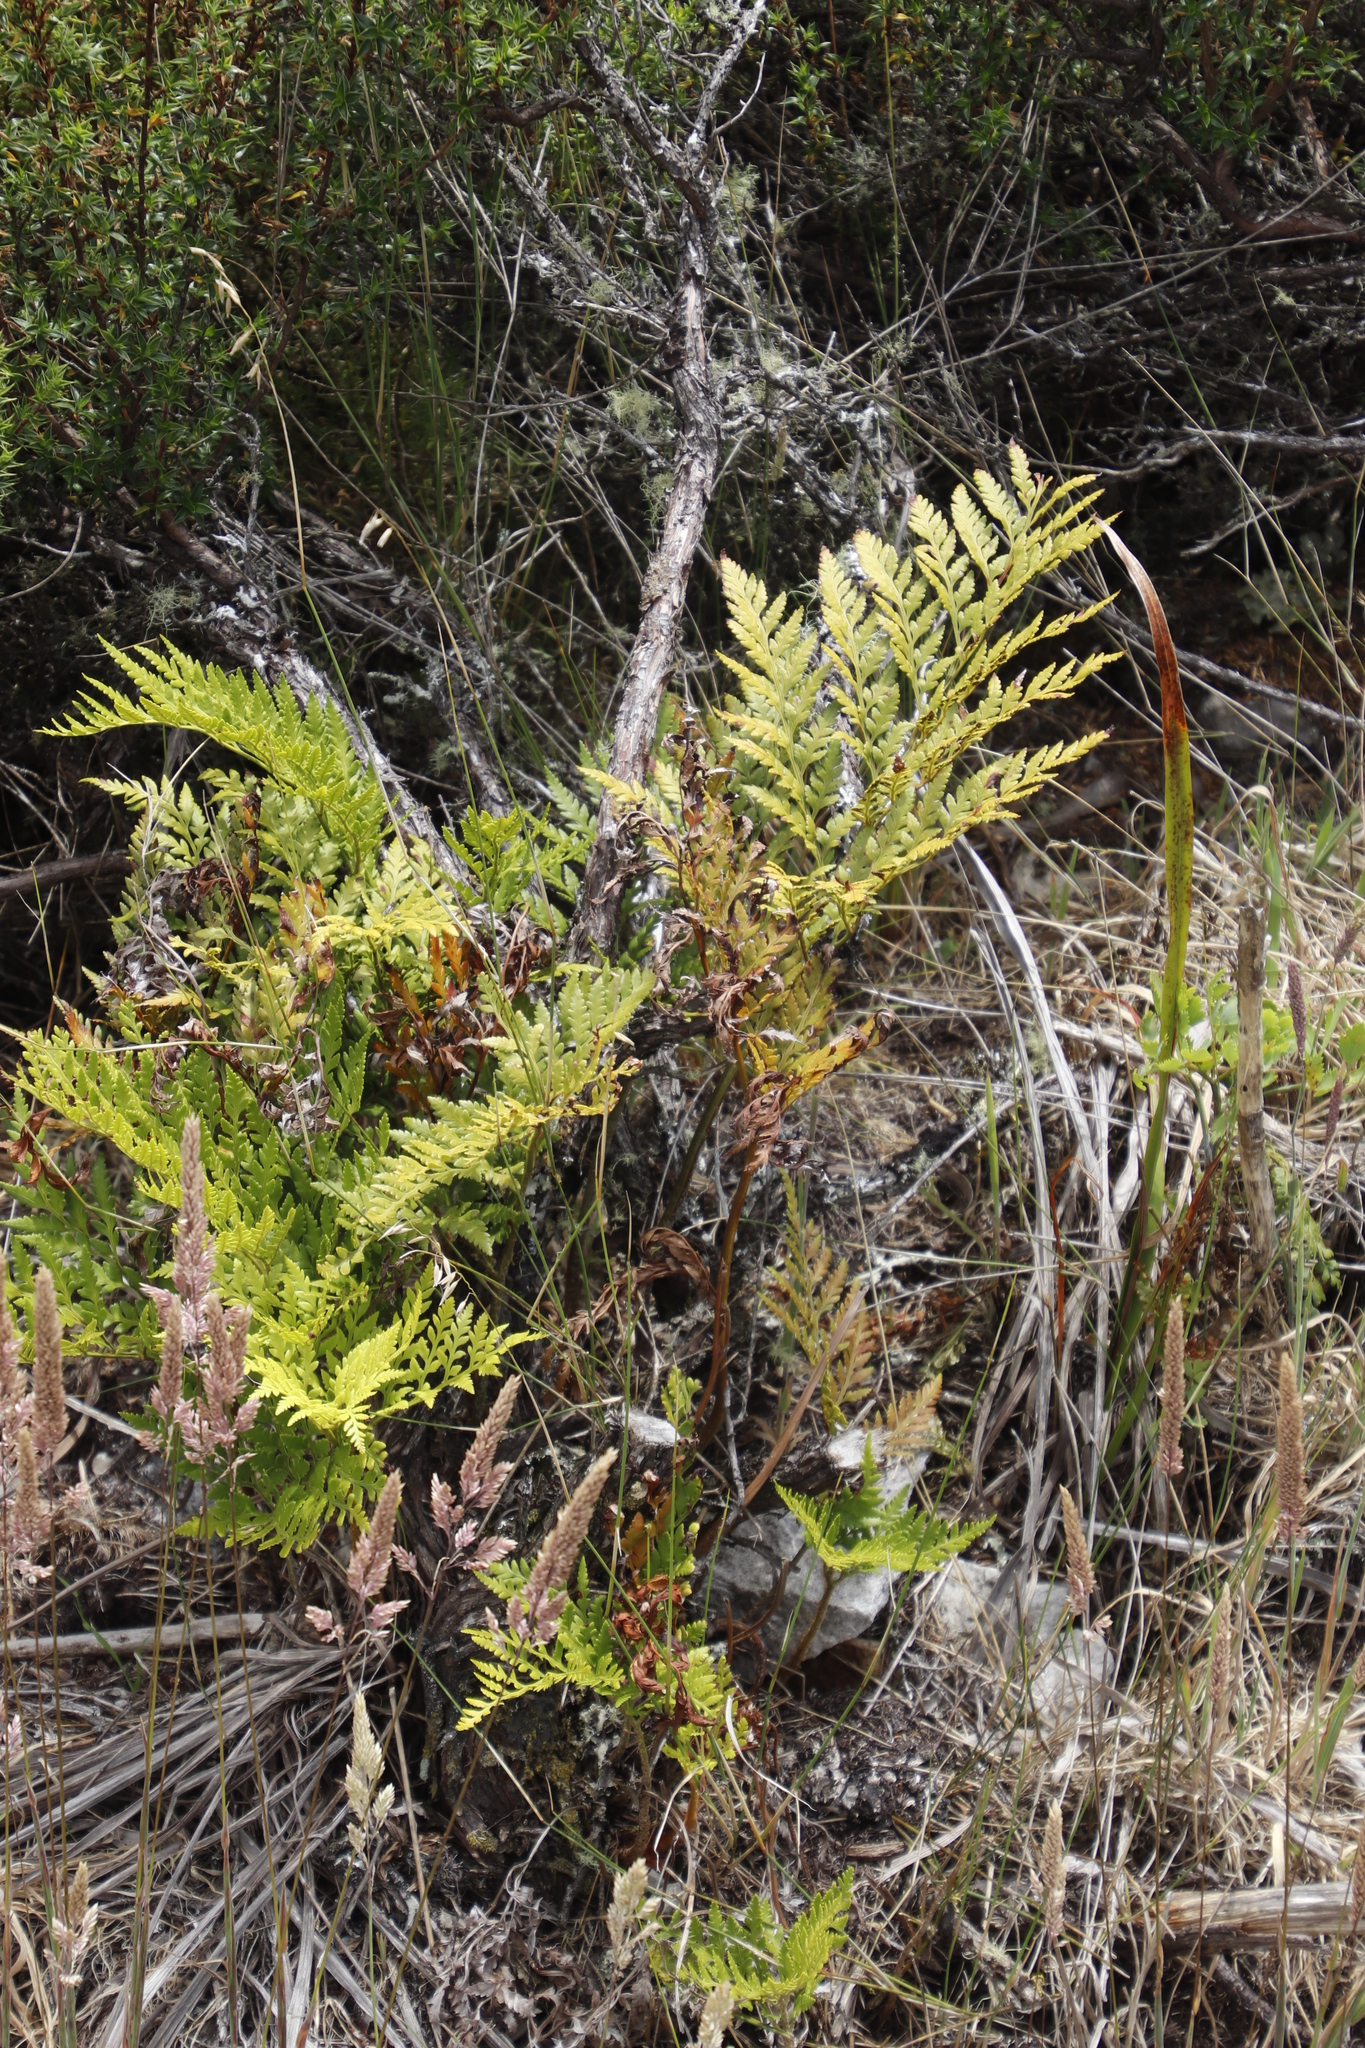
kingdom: Plantae
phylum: Tracheophyta
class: Polypodiopsida
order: Polypodiales
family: Dryopteridaceae
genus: Rumohra
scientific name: Rumohra adiantiformis
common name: Leather fern
